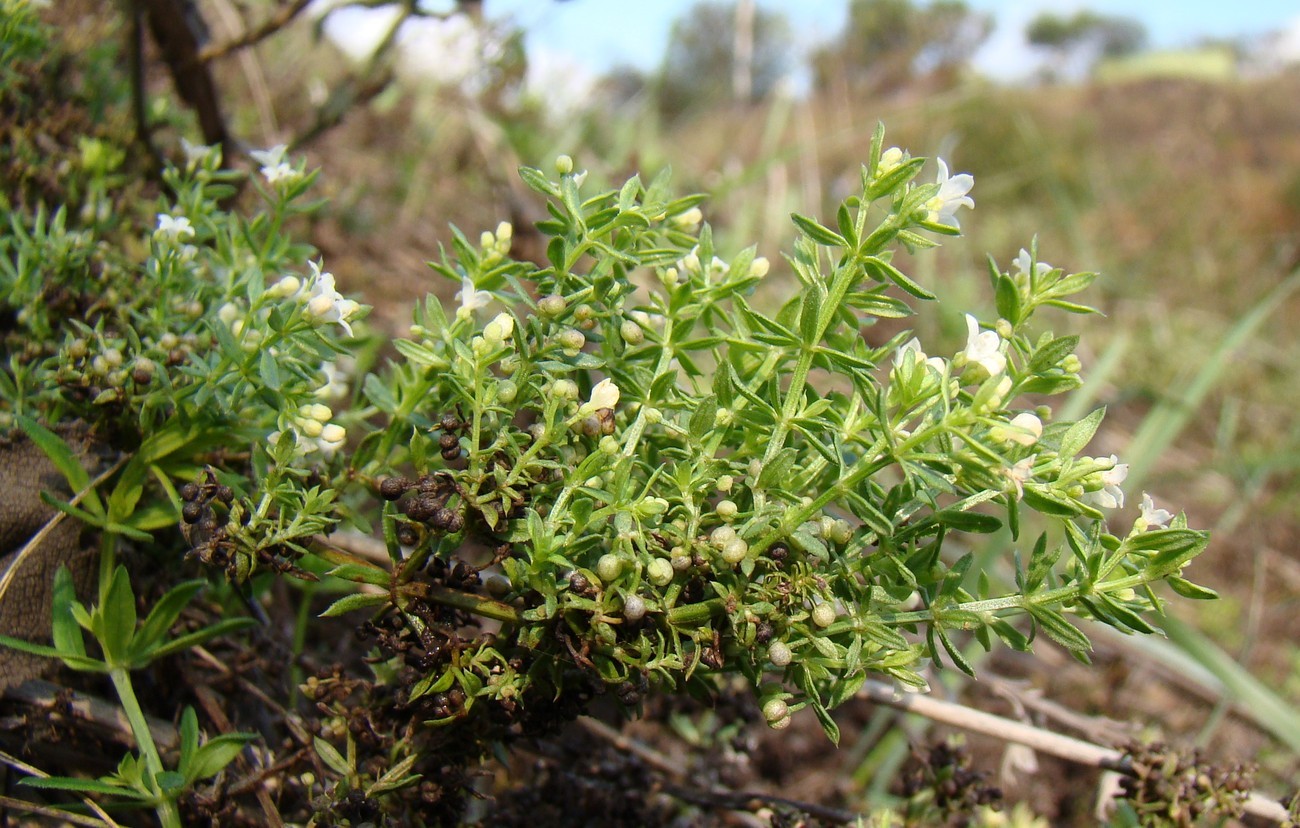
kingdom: Plantae
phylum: Tracheophyta
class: Magnoliopsida
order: Gentianales
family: Rubiaceae
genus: Galium
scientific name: Galium humifusum
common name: Spreading bedstraw
